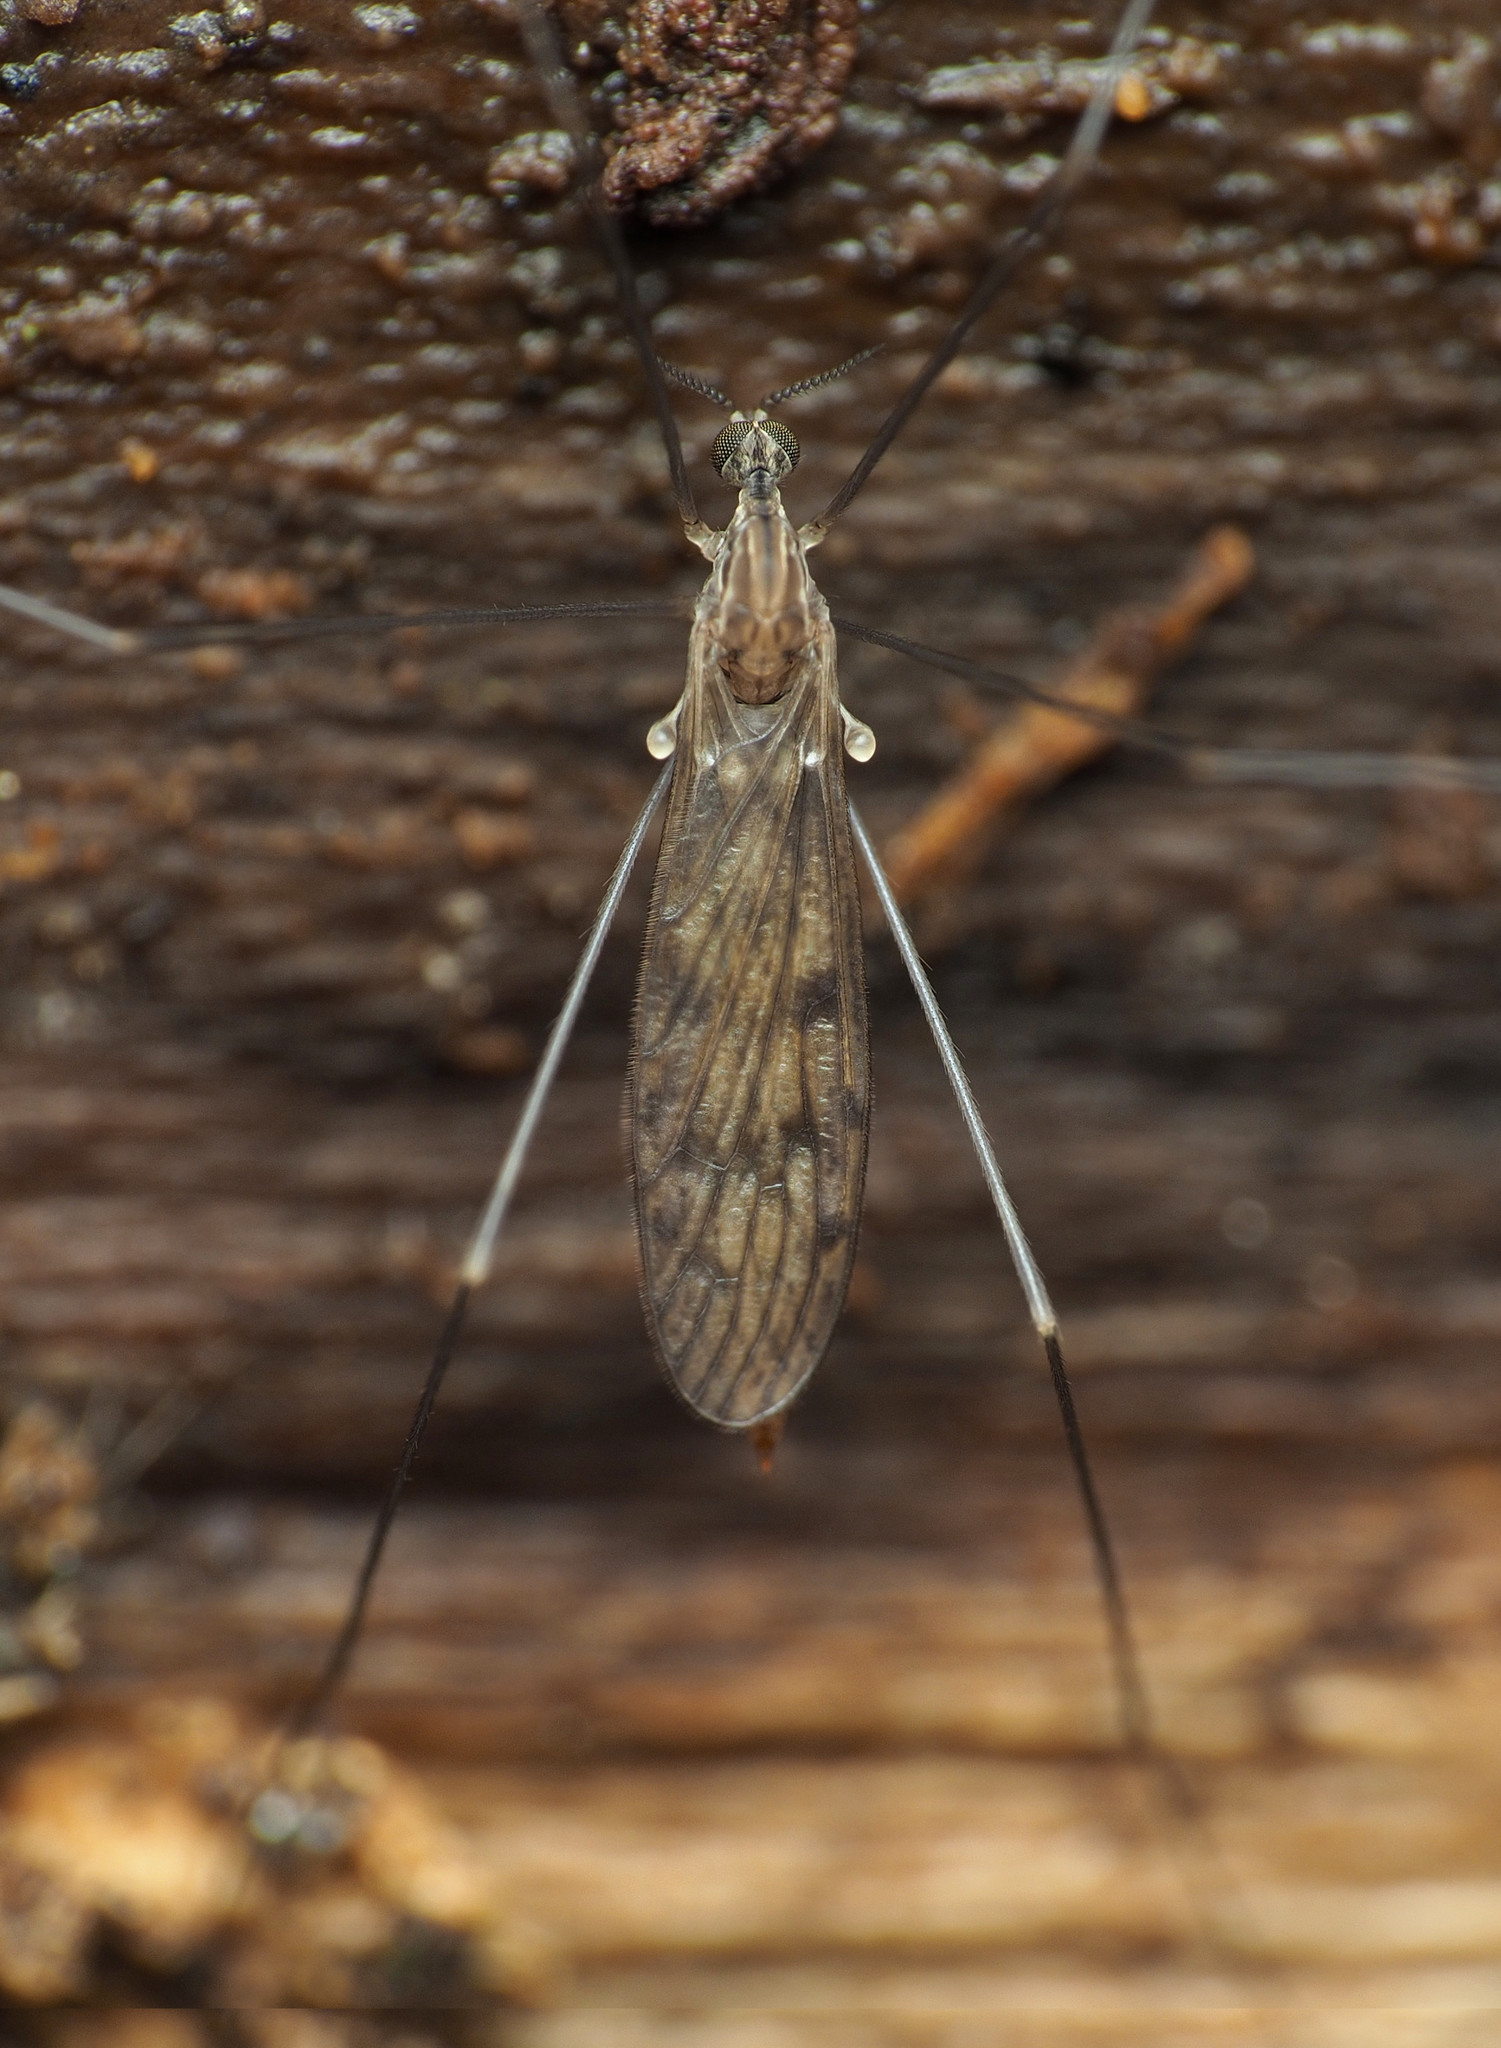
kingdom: Animalia
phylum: Arthropoda
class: Insecta
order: Diptera
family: Limoniidae
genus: Metalimnobia
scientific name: Metalimnobia novaeangliae
